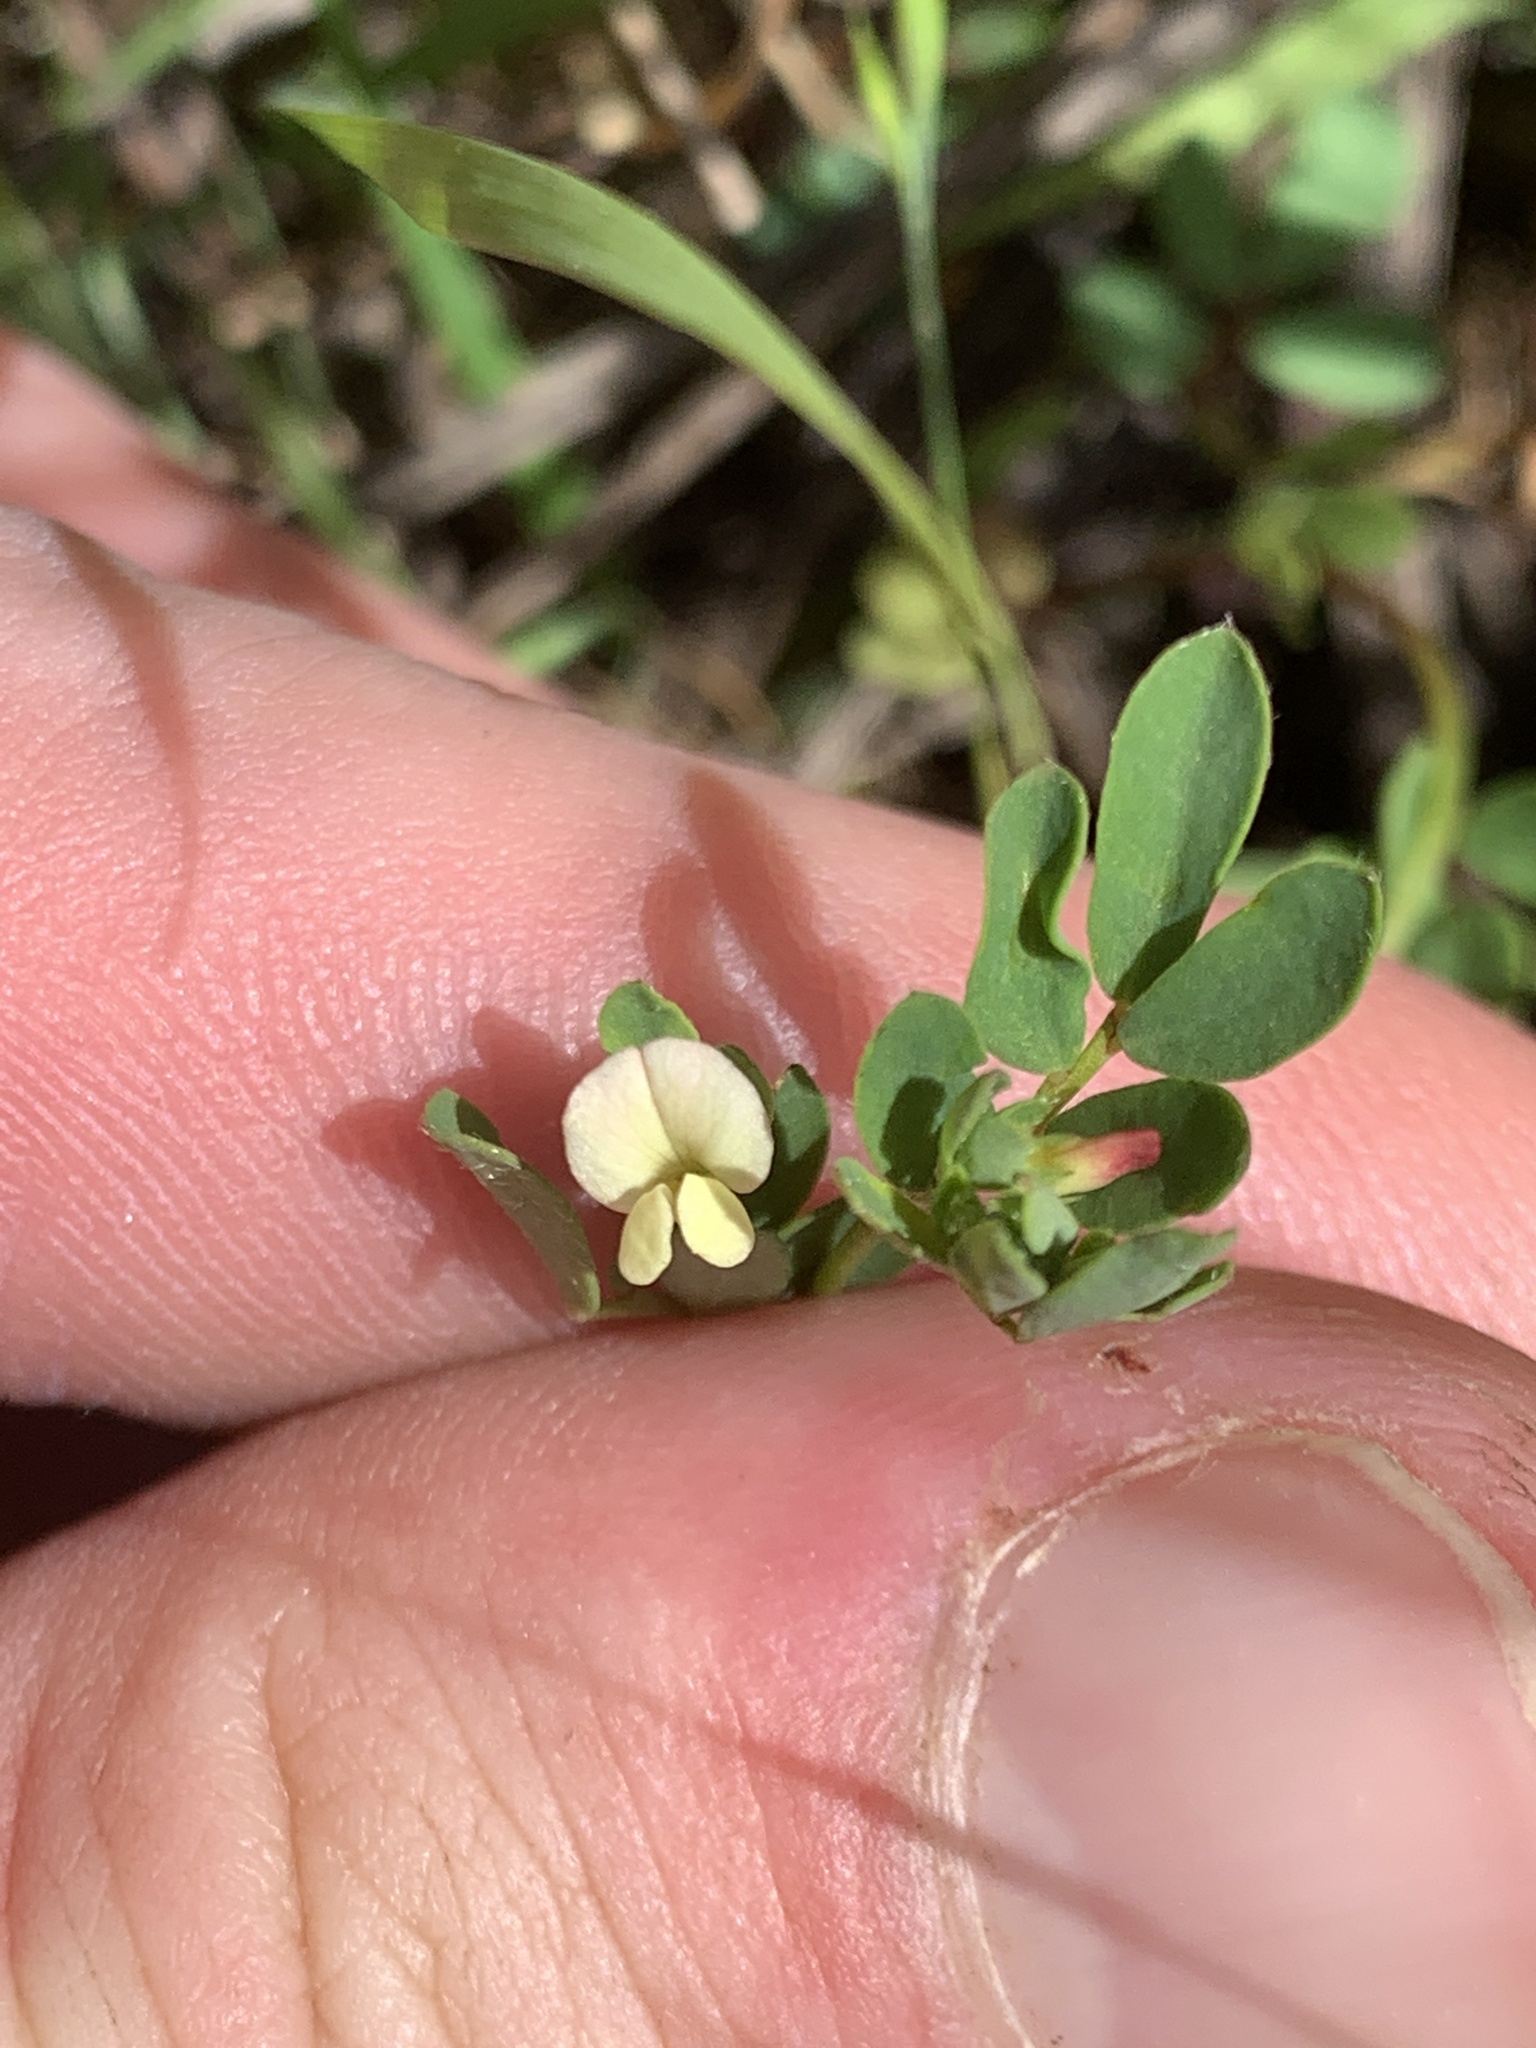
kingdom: Plantae
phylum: Tracheophyta
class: Magnoliopsida
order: Fabales
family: Fabaceae
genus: Acmispon
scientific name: Acmispon parviflorus
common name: Desert deer-vetch
